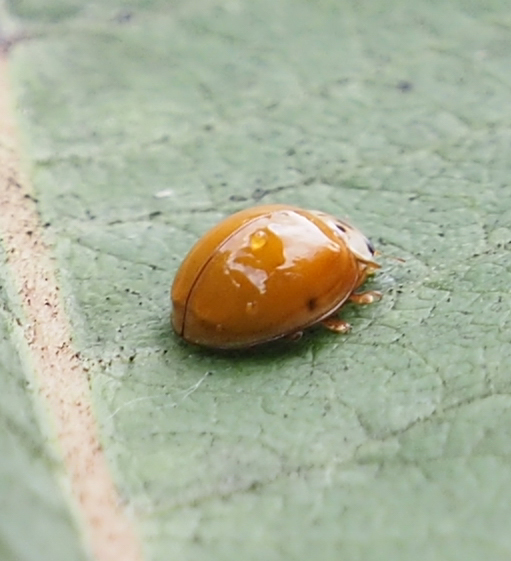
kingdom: Animalia
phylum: Arthropoda
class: Insecta
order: Coleoptera
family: Coccinellidae
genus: Harmonia
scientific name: Harmonia axyridis
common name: Harlequin ladybird
